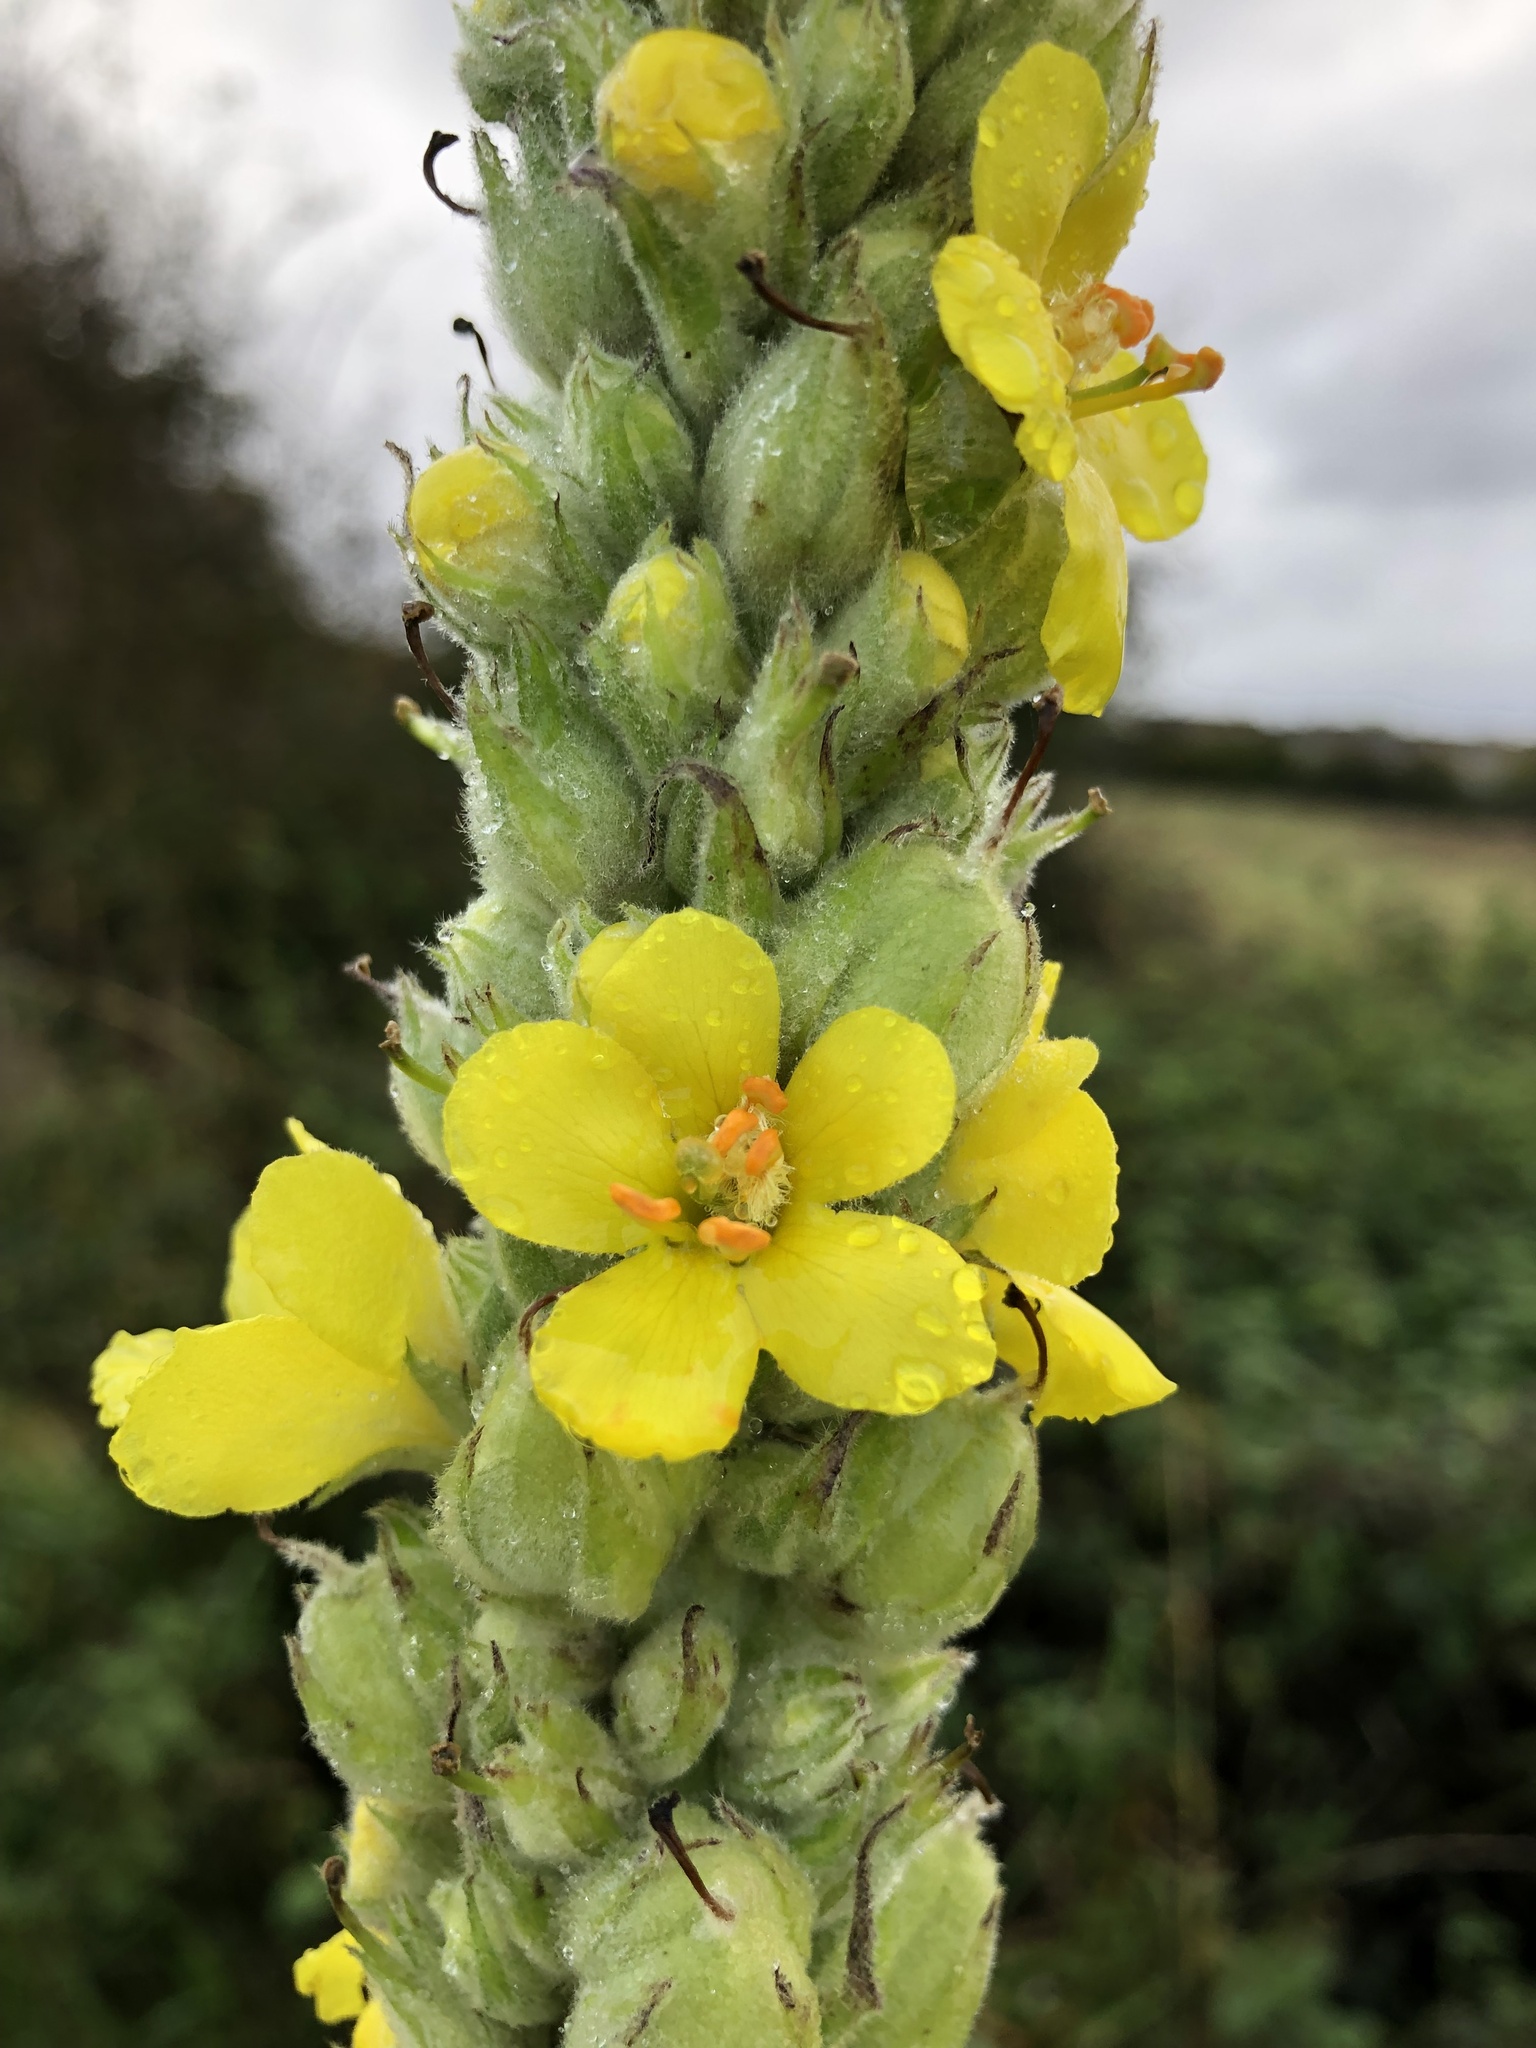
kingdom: Plantae
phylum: Tracheophyta
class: Magnoliopsida
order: Lamiales
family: Scrophulariaceae
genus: Verbascum
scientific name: Verbascum thapsus
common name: Common mullein
